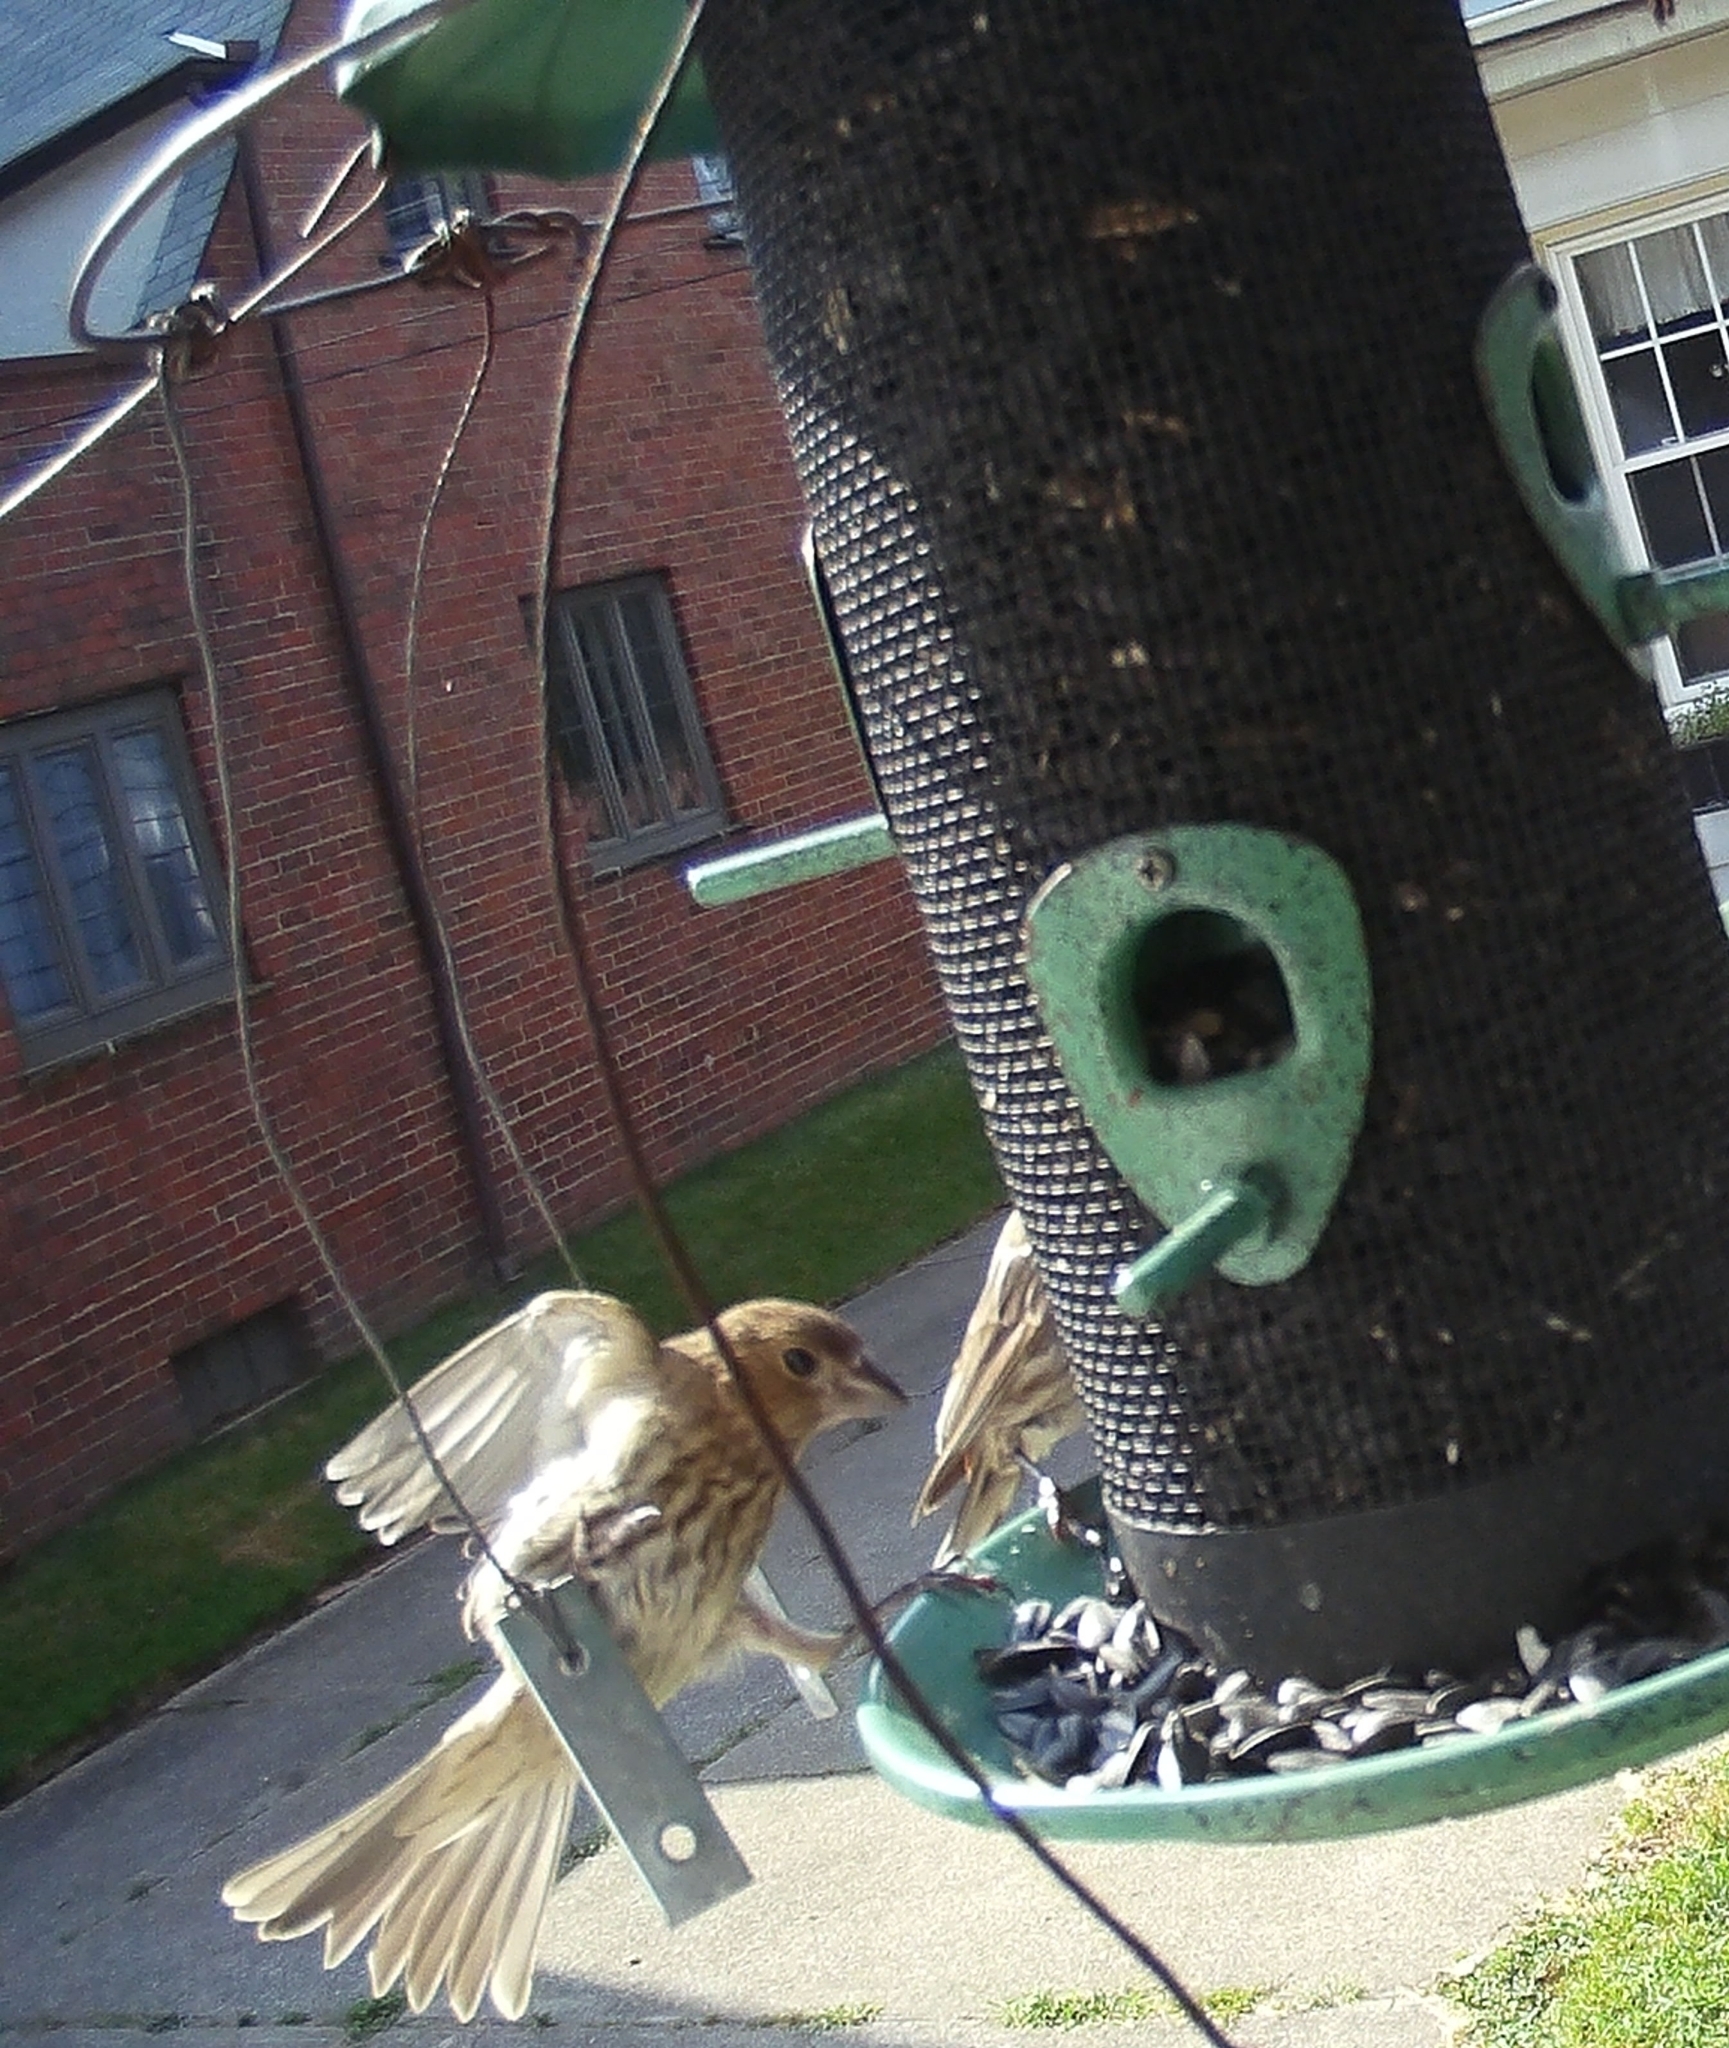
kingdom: Animalia
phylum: Chordata
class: Aves
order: Passeriformes
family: Fringillidae
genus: Haemorhous
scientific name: Haemorhous mexicanus
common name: House finch
